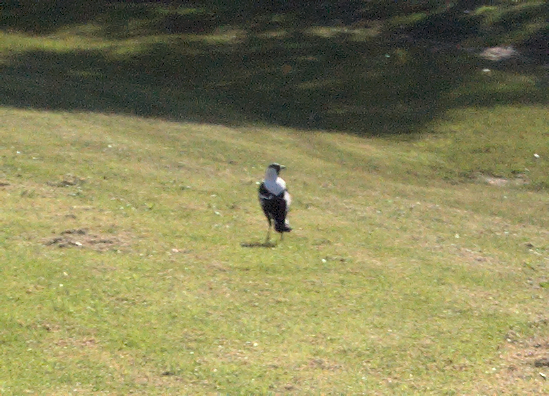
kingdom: Animalia
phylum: Chordata
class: Aves
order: Passeriformes
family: Cracticidae
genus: Gymnorhina
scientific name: Gymnorhina tibicen
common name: Australian magpie
